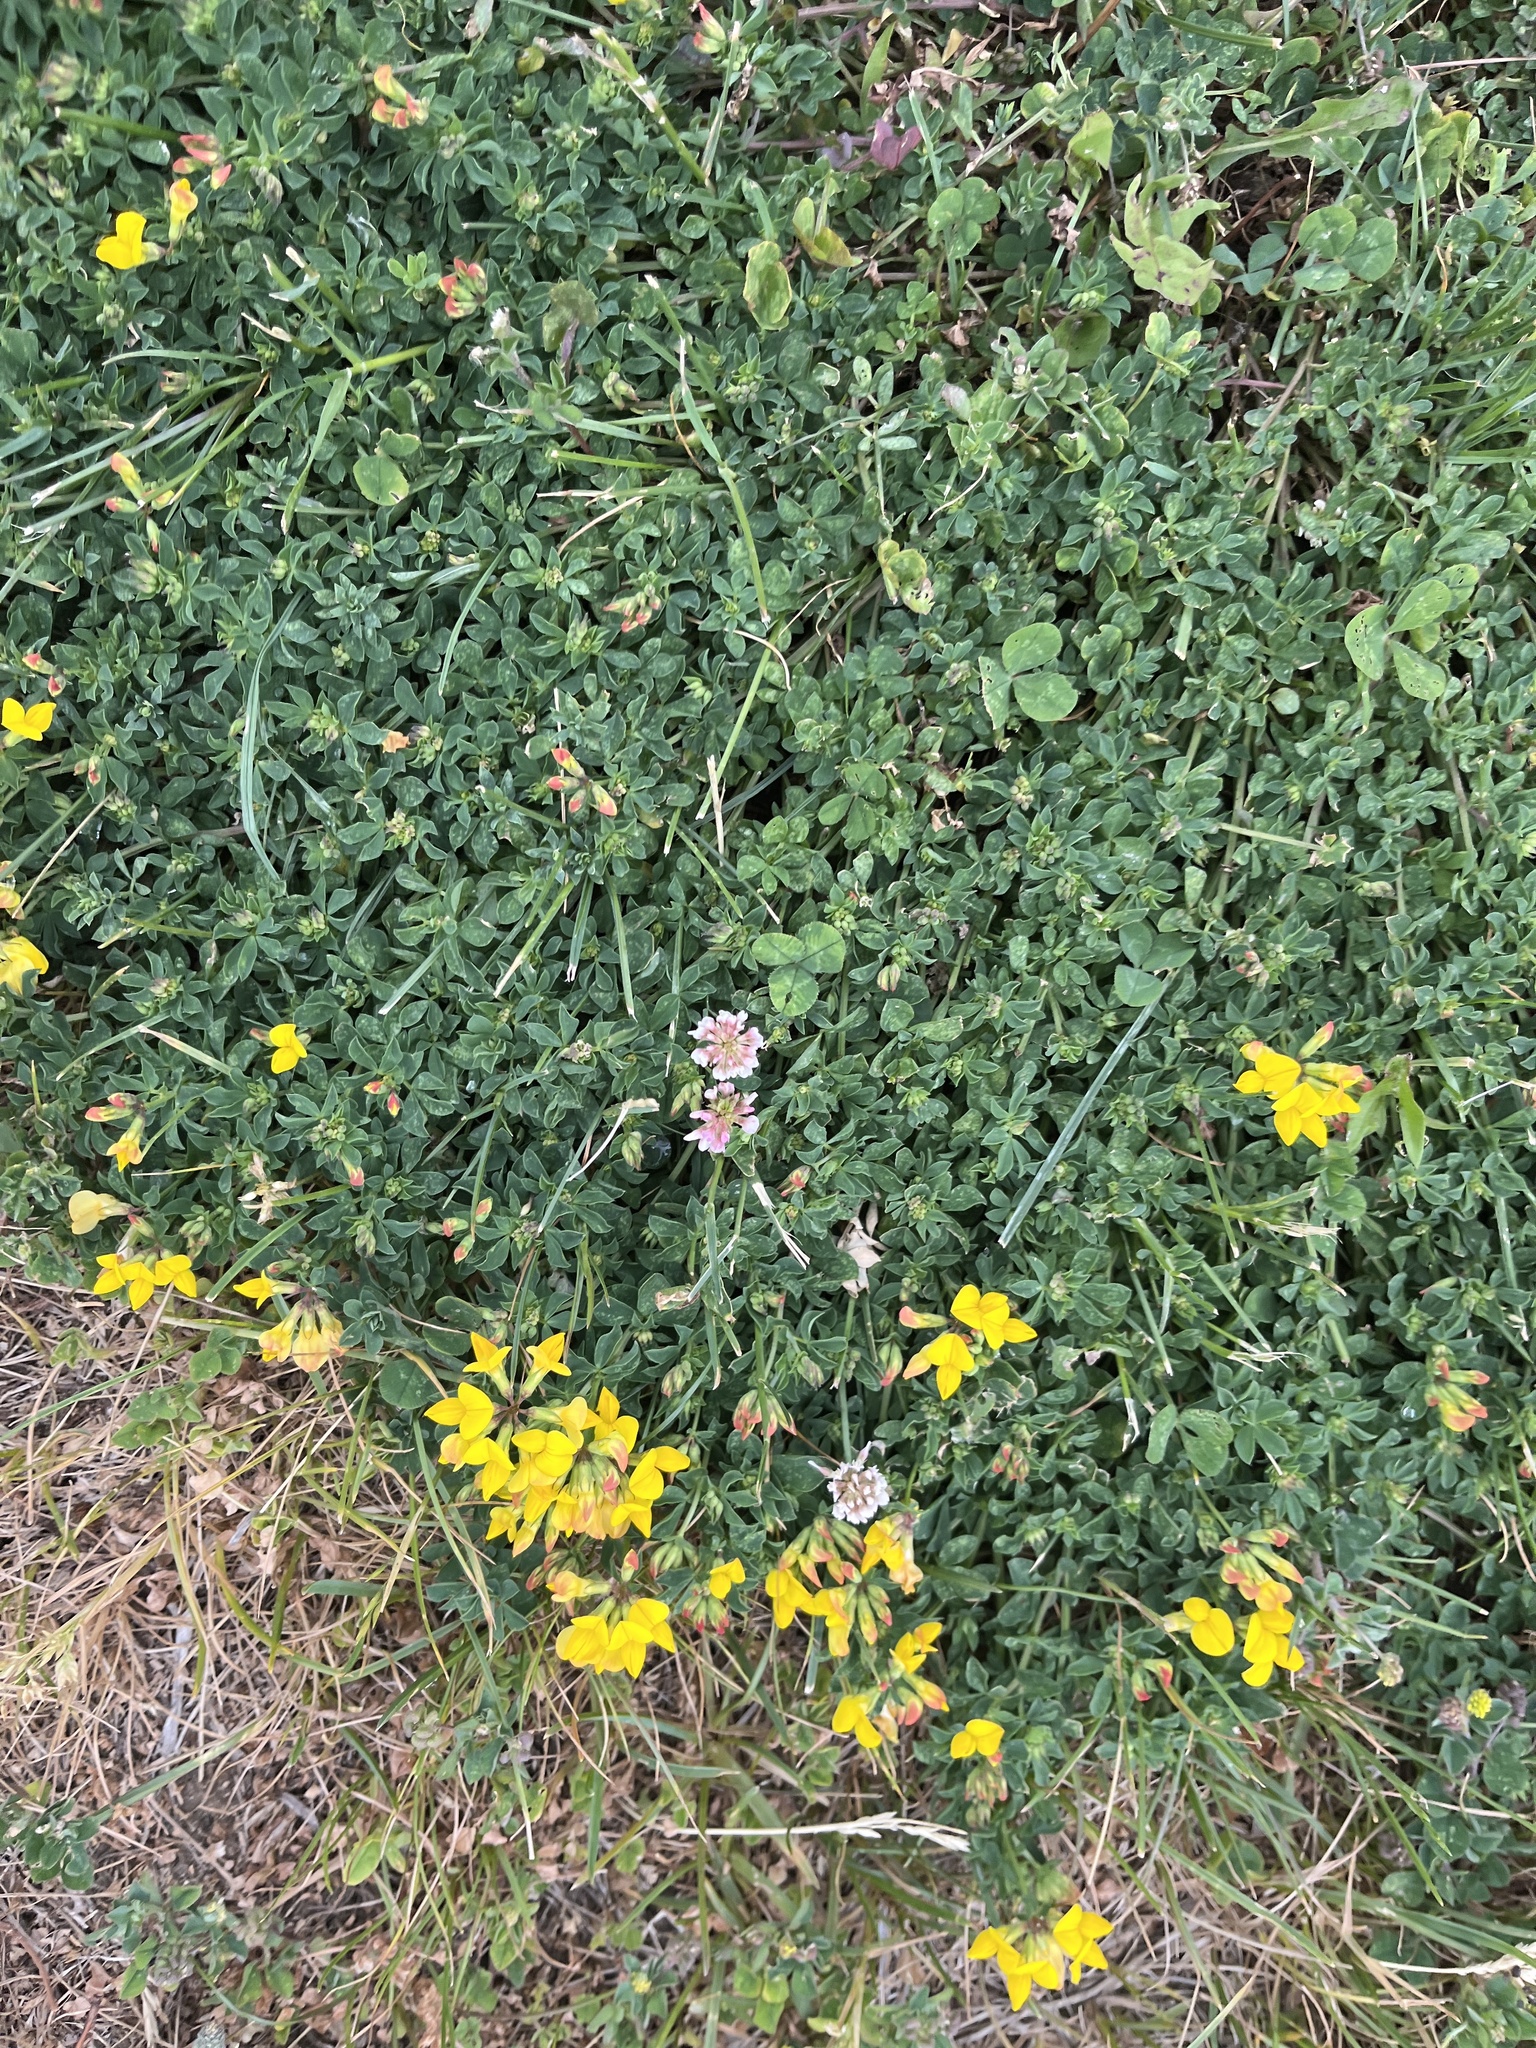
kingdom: Plantae
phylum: Tracheophyta
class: Magnoliopsida
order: Fabales
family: Fabaceae
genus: Lotus
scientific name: Lotus corniculatus
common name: Common bird's-foot-trefoil
